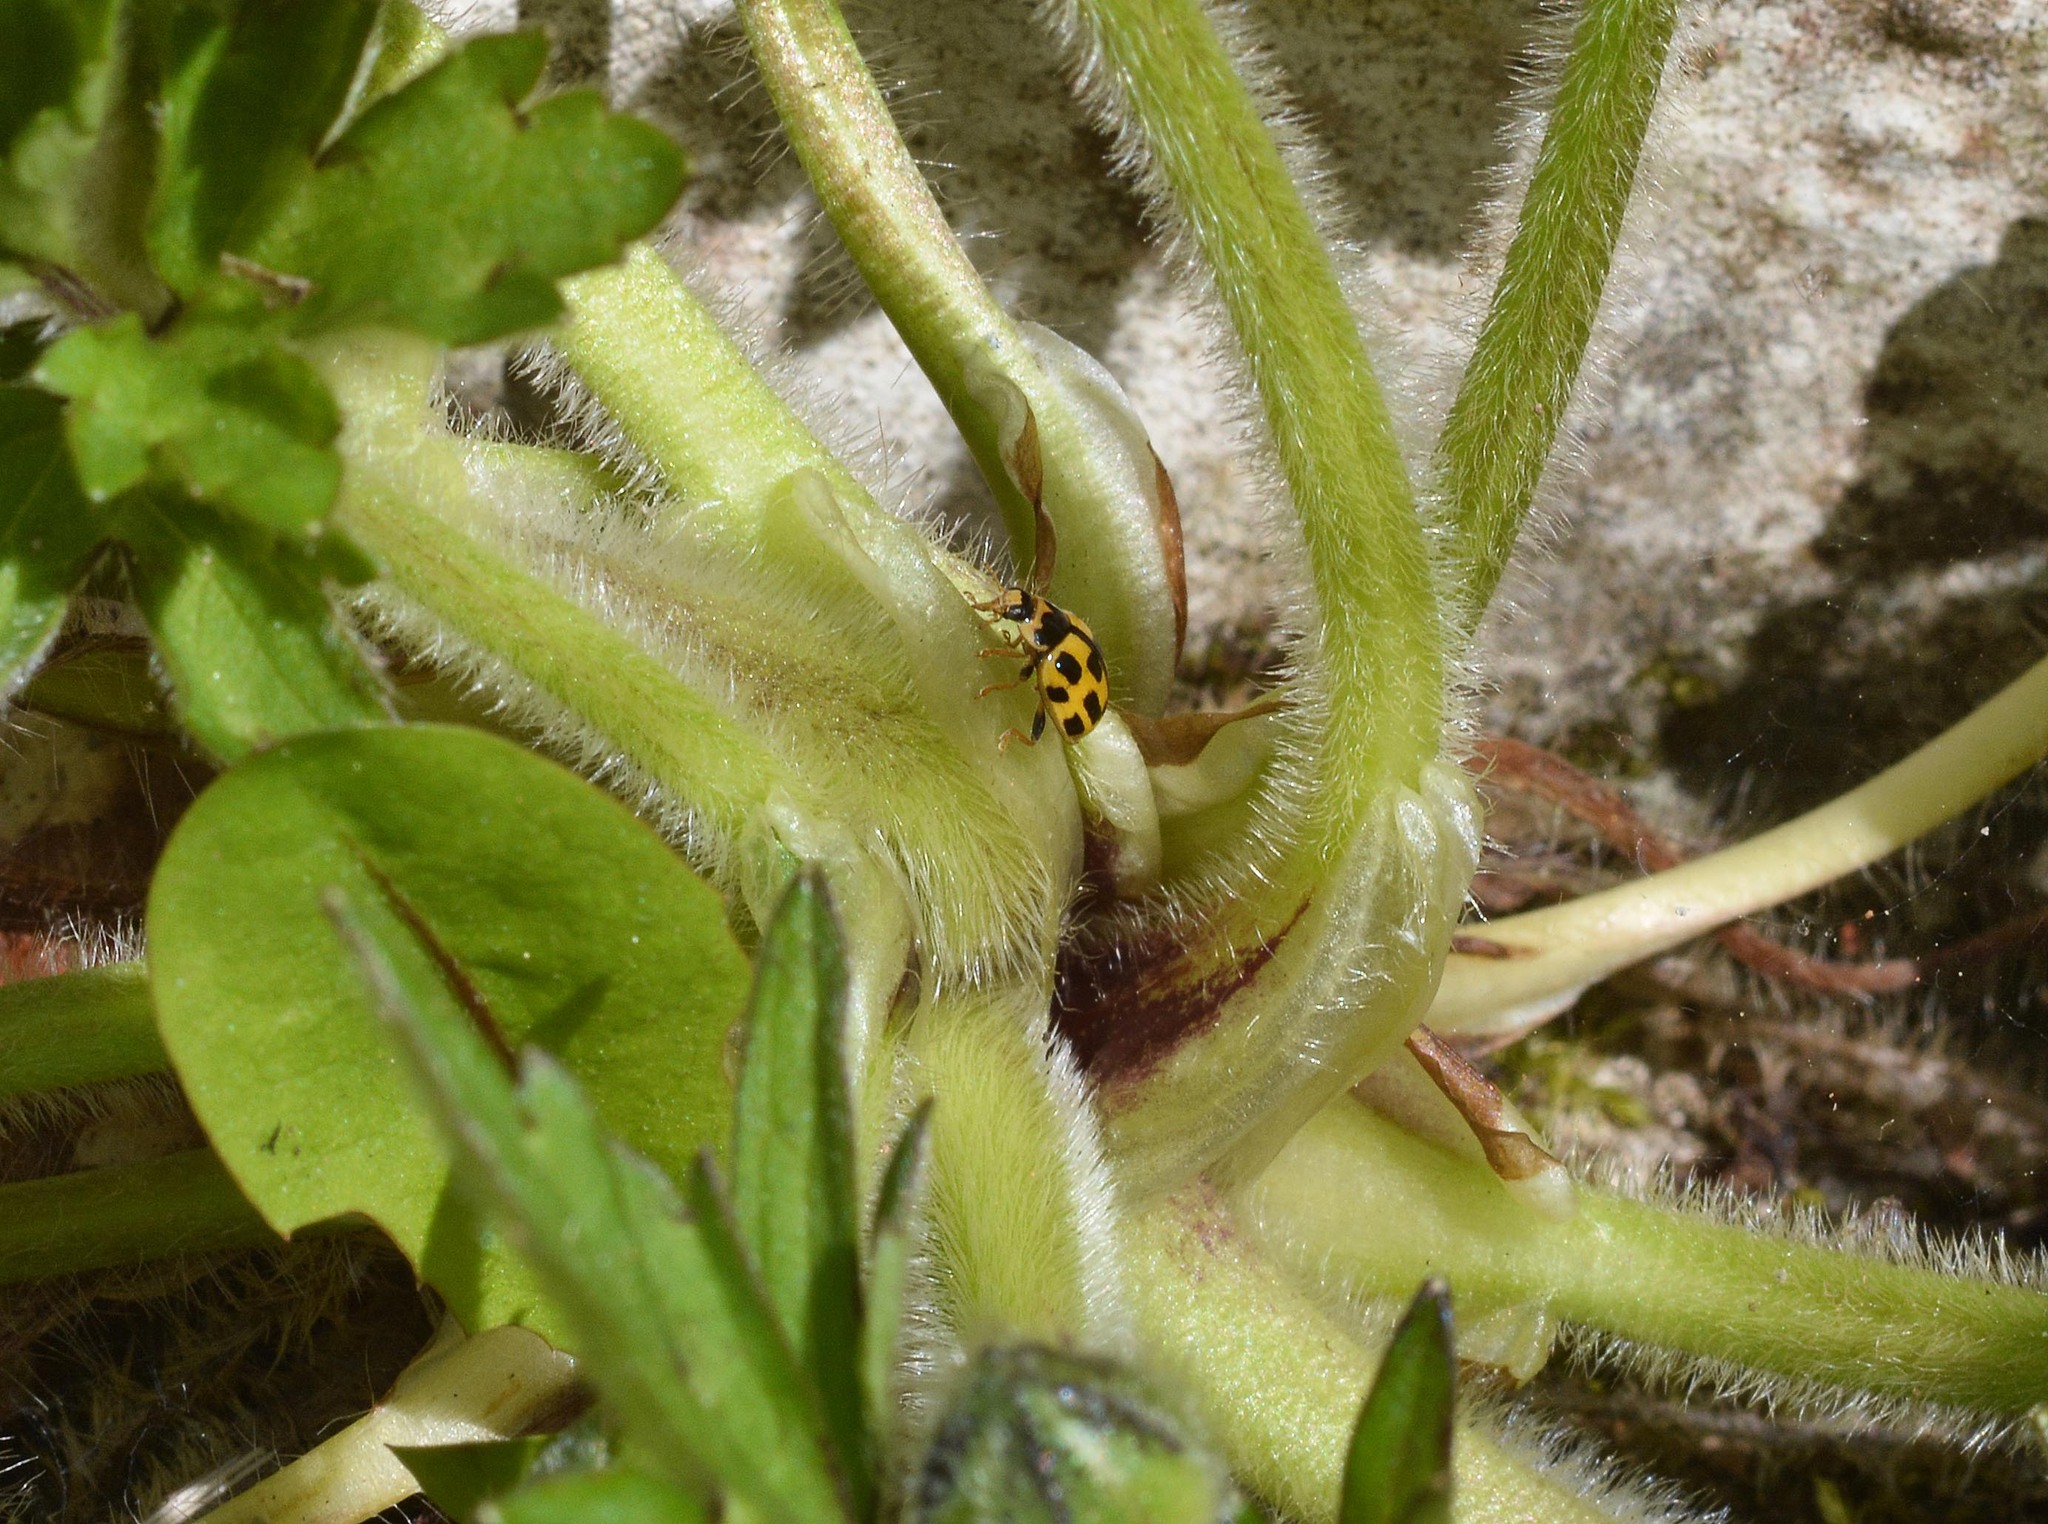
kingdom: Animalia
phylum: Arthropoda
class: Insecta
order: Coleoptera
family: Coccinellidae
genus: Propylaea
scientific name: Propylaea quatuordecimpunctata
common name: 14-spotted ladybird beetle
